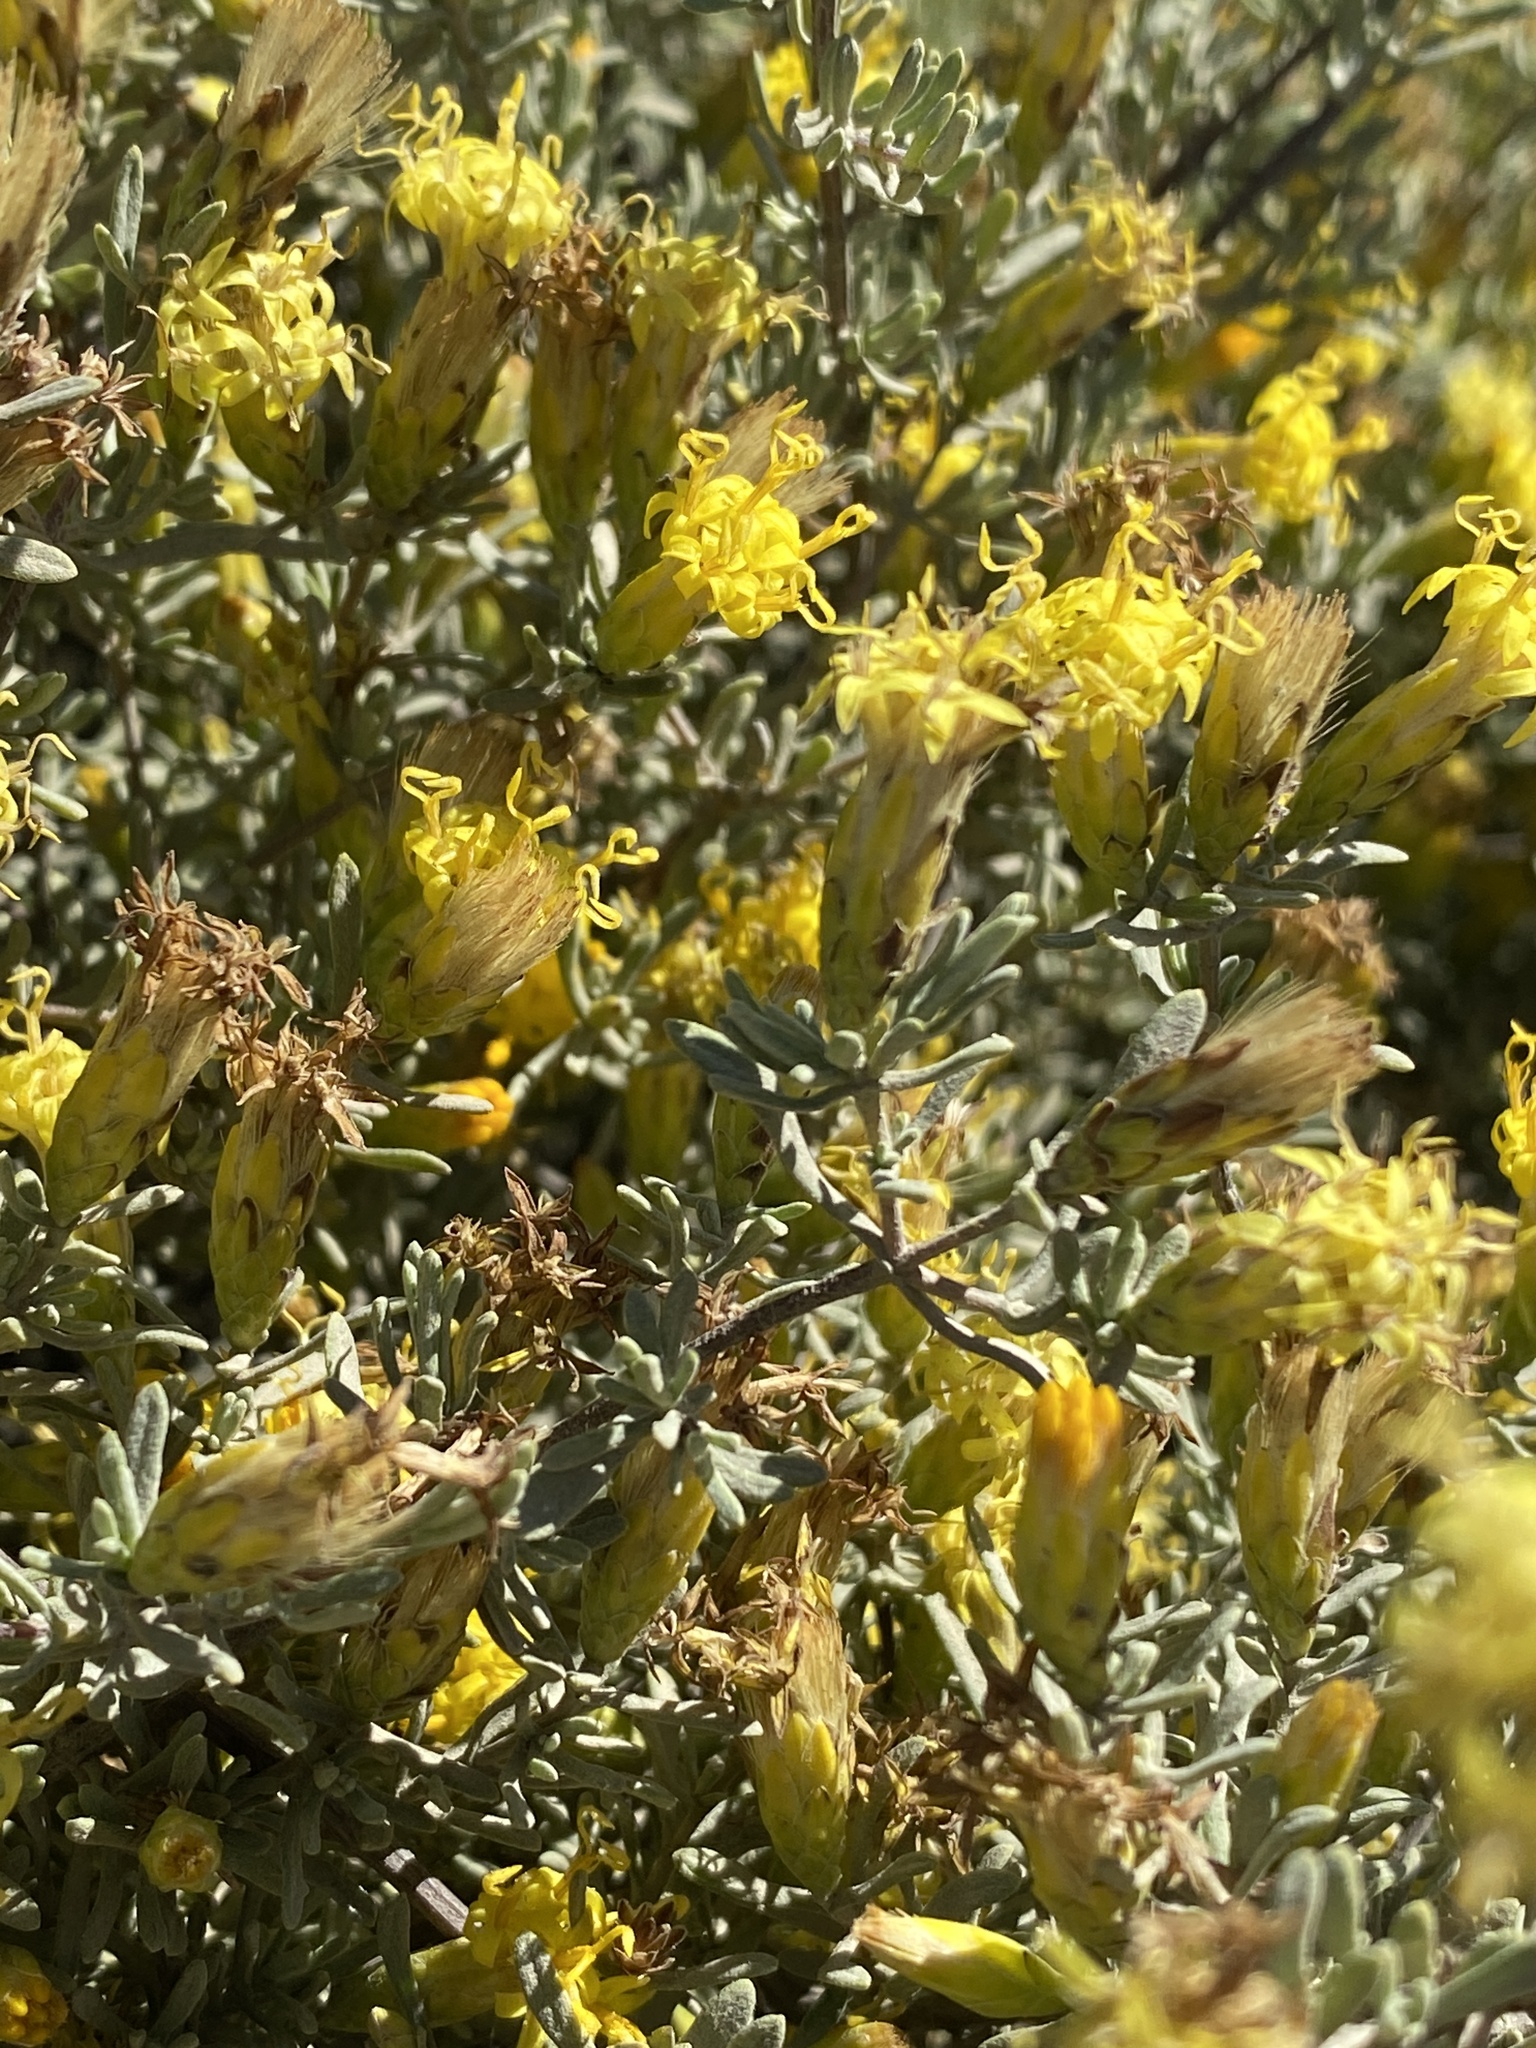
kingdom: Plantae
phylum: Tracheophyta
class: Magnoliopsida
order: Asterales
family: Asteraceae
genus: Pteronia
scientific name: Pteronia incana
